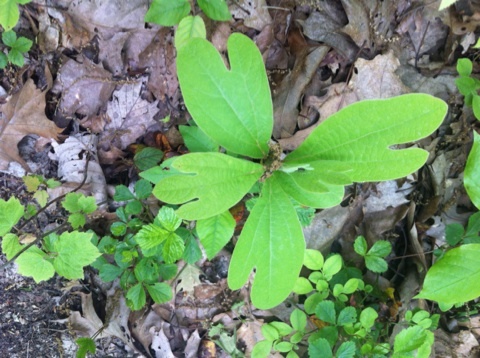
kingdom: Plantae
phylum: Tracheophyta
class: Magnoliopsida
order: Laurales
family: Lauraceae
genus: Sassafras
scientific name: Sassafras albidum
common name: Sassafras
